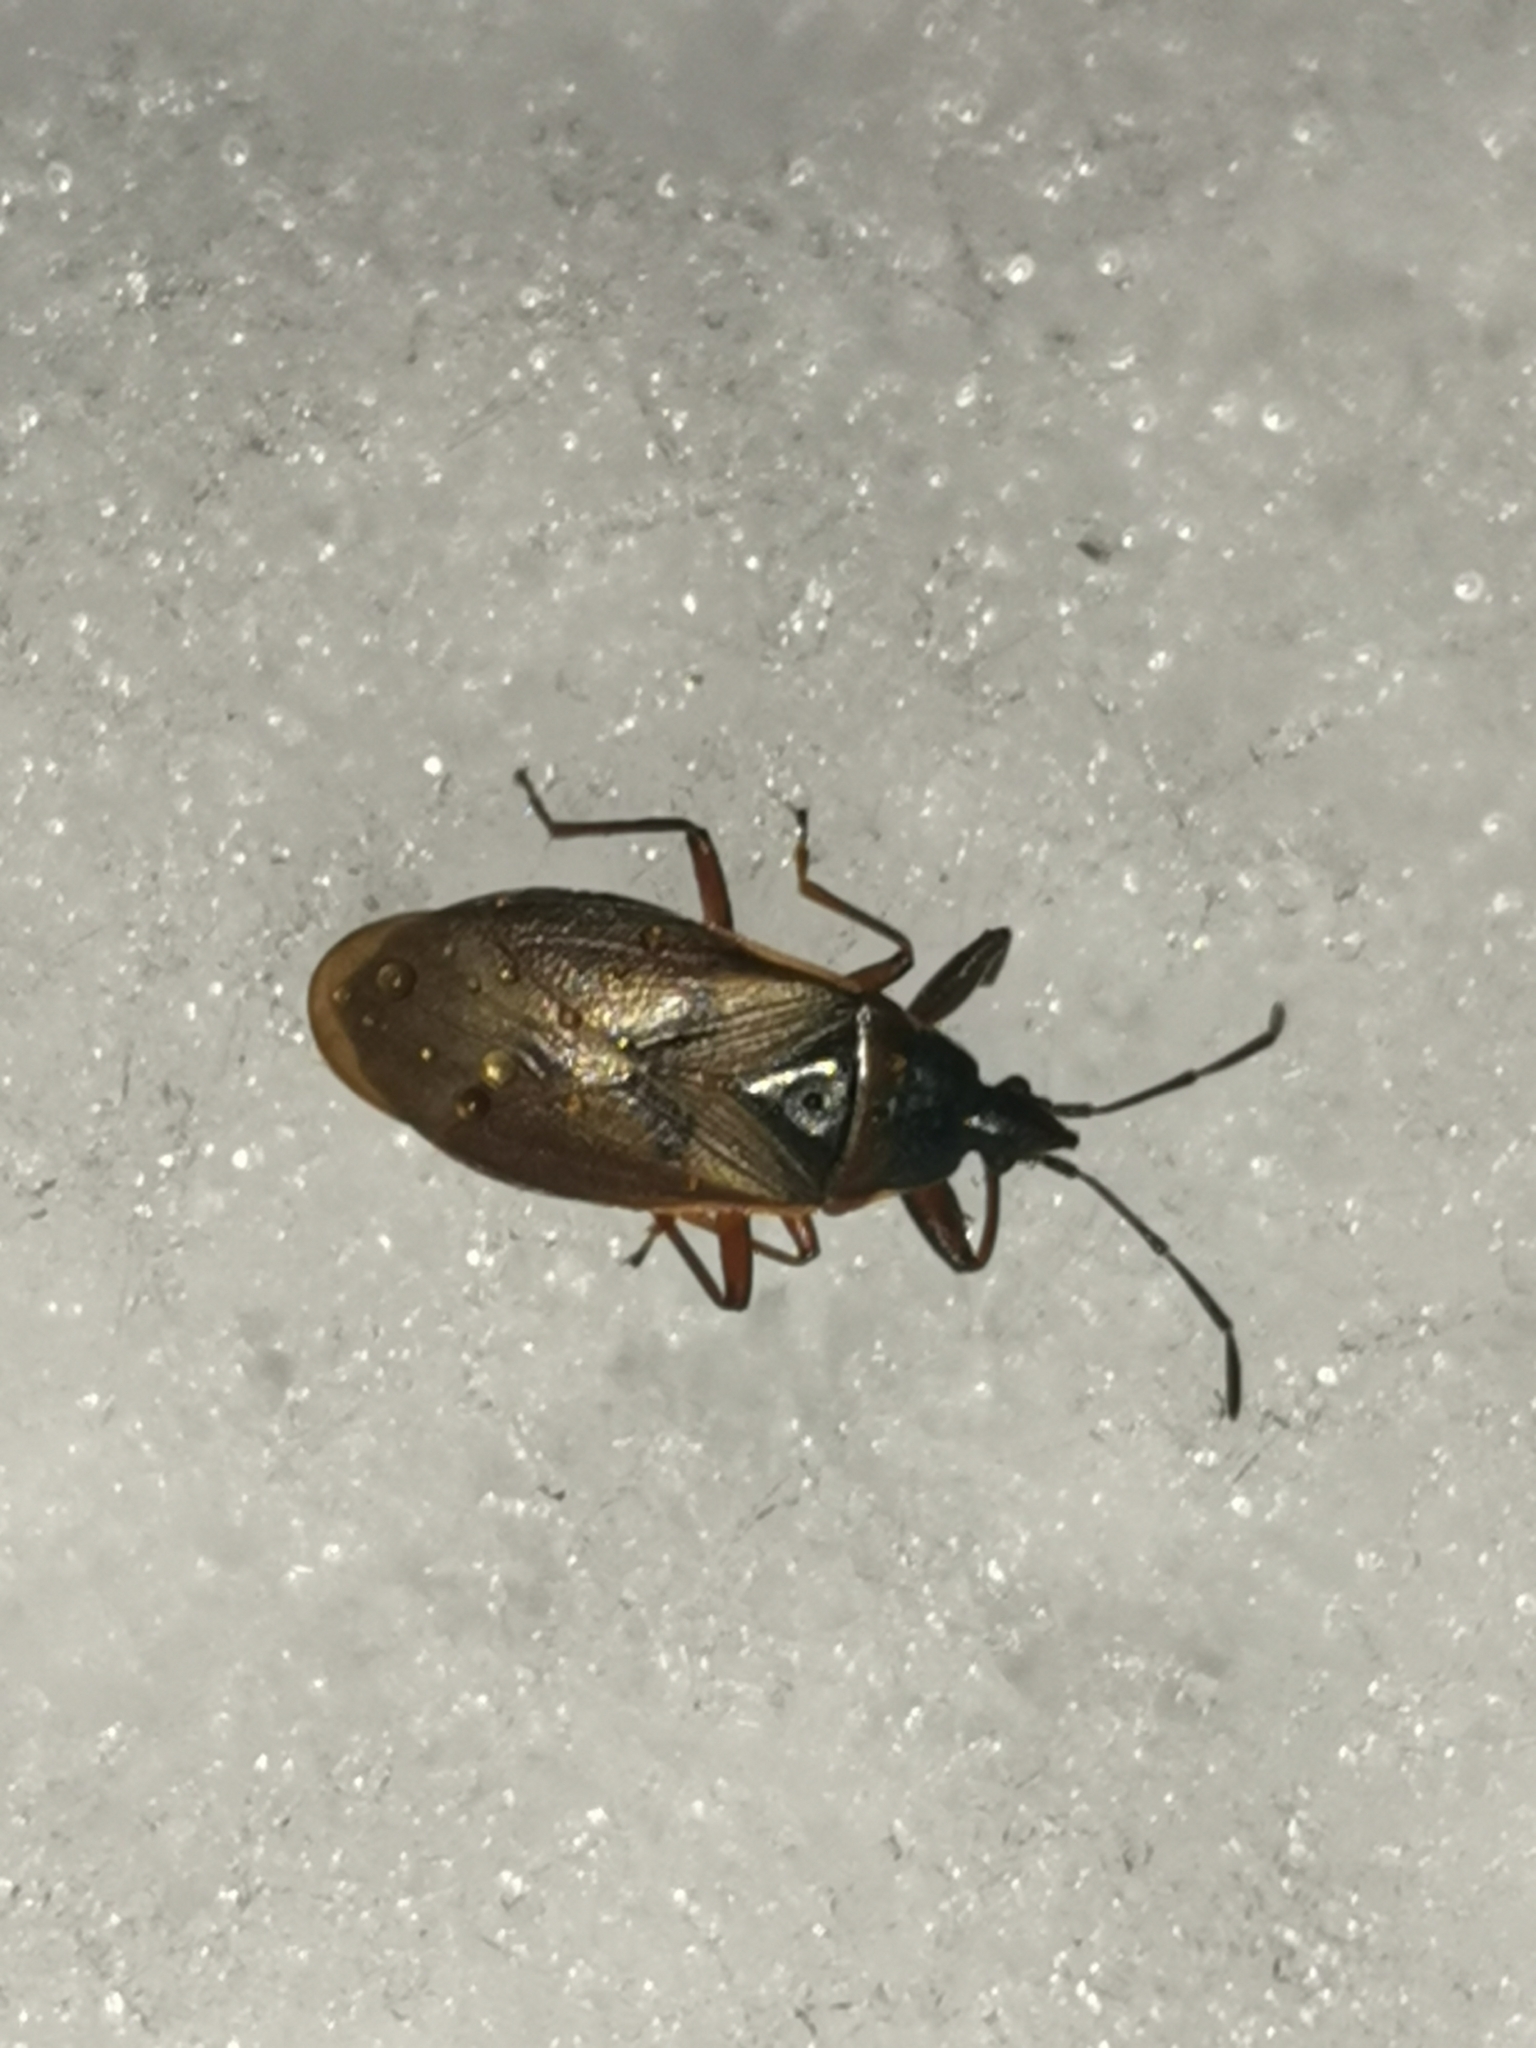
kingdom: Animalia
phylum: Arthropoda
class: Insecta
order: Hemiptera
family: Rhyparochromidae
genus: Gastrodes
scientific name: Gastrodes abietum
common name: Spruce cone bug
